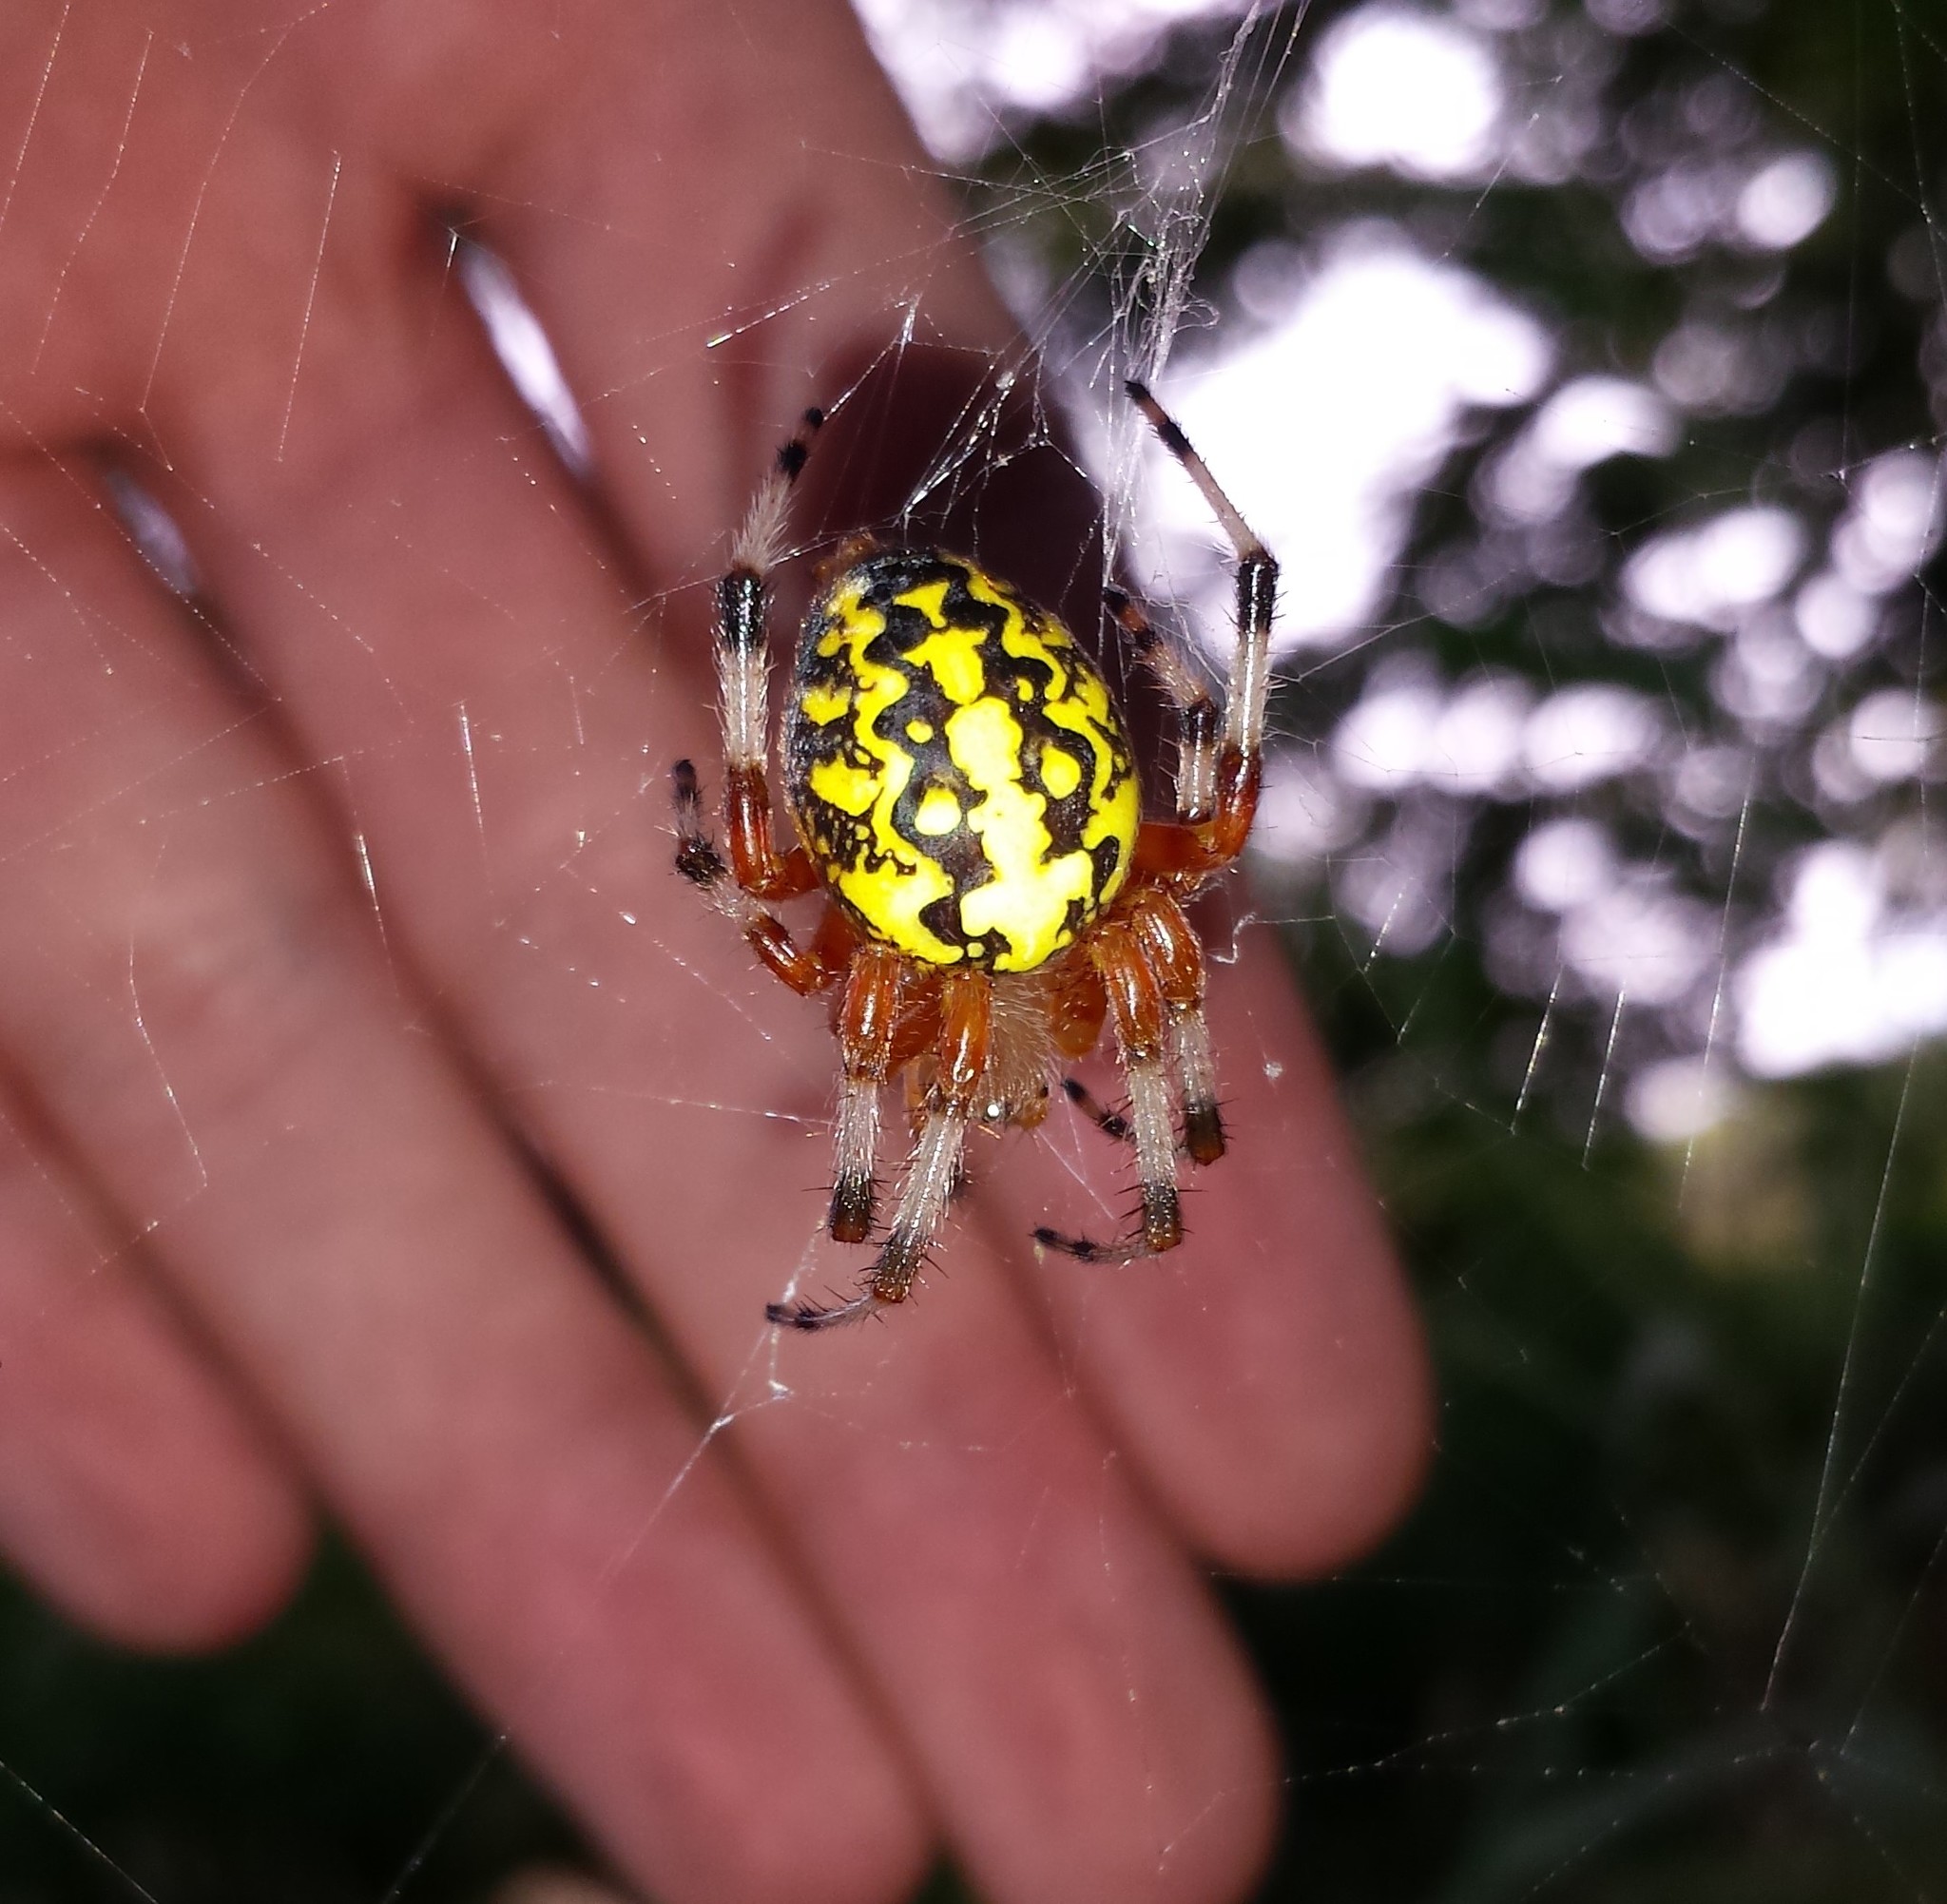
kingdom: Animalia
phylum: Arthropoda
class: Arachnida
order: Araneae
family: Araneidae
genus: Araneus
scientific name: Araneus marmoreus
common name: Marbled orbweaver
